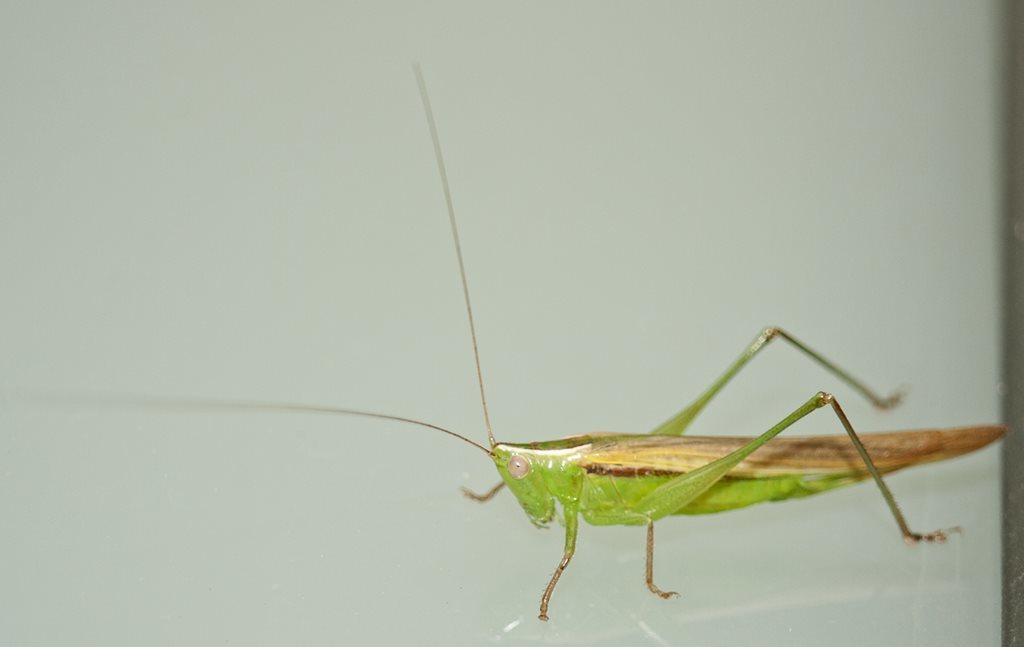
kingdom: Animalia
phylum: Arthropoda
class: Insecta
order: Orthoptera
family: Tettigoniidae
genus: Conocephalus
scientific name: Conocephalus upoluensis
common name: Upolu meadow katydid
